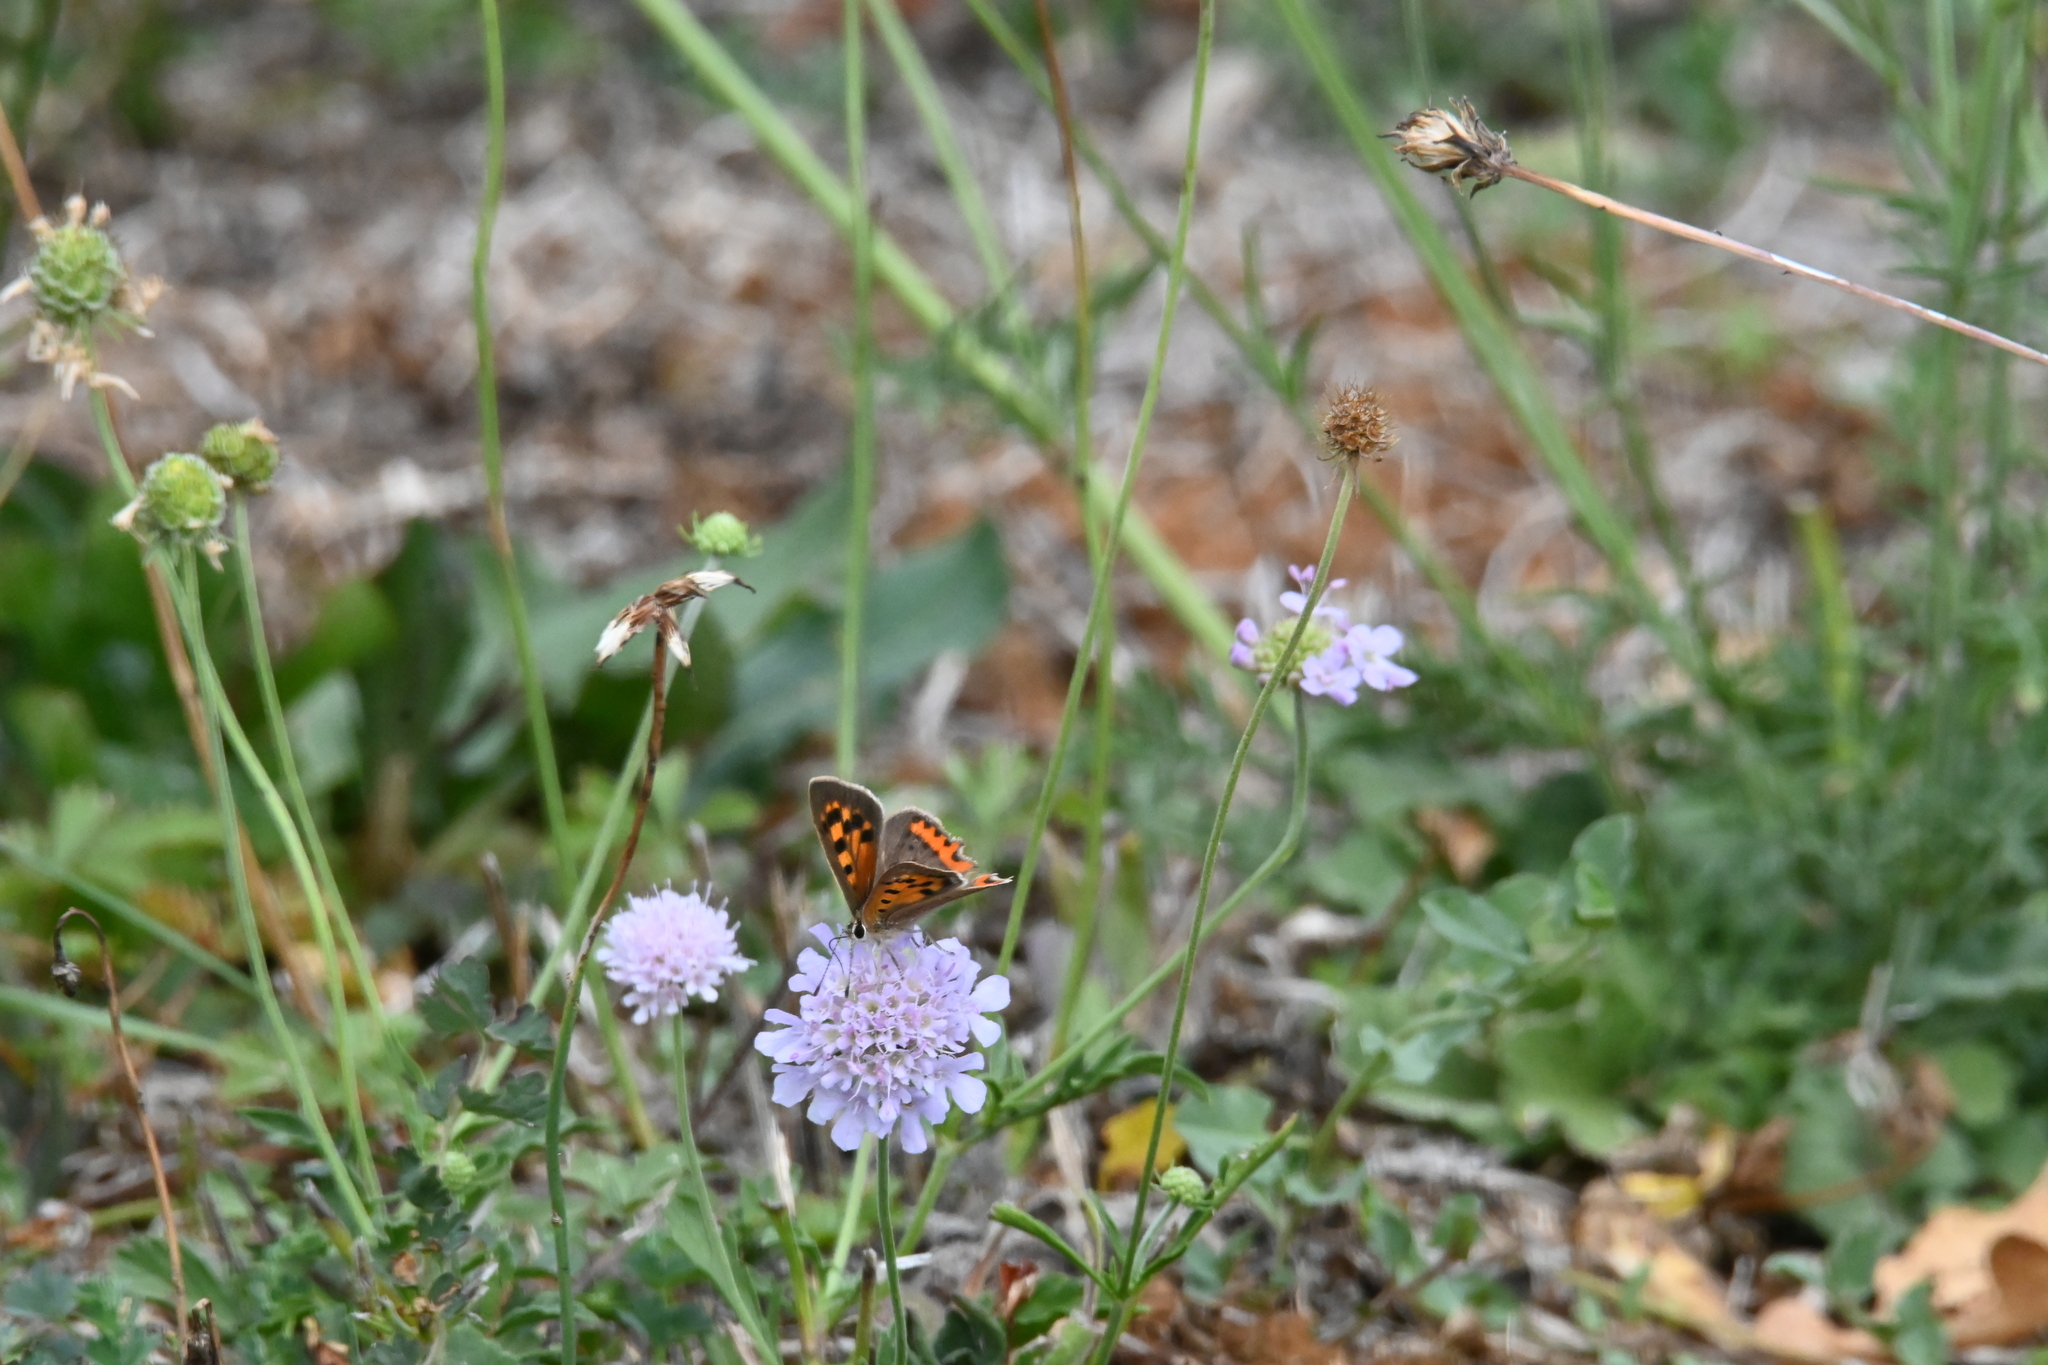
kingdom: Animalia
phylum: Arthropoda
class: Insecta
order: Lepidoptera
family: Lycaenidae
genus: Lycaena
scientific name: Lycaena phlaeas
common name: Small copper
